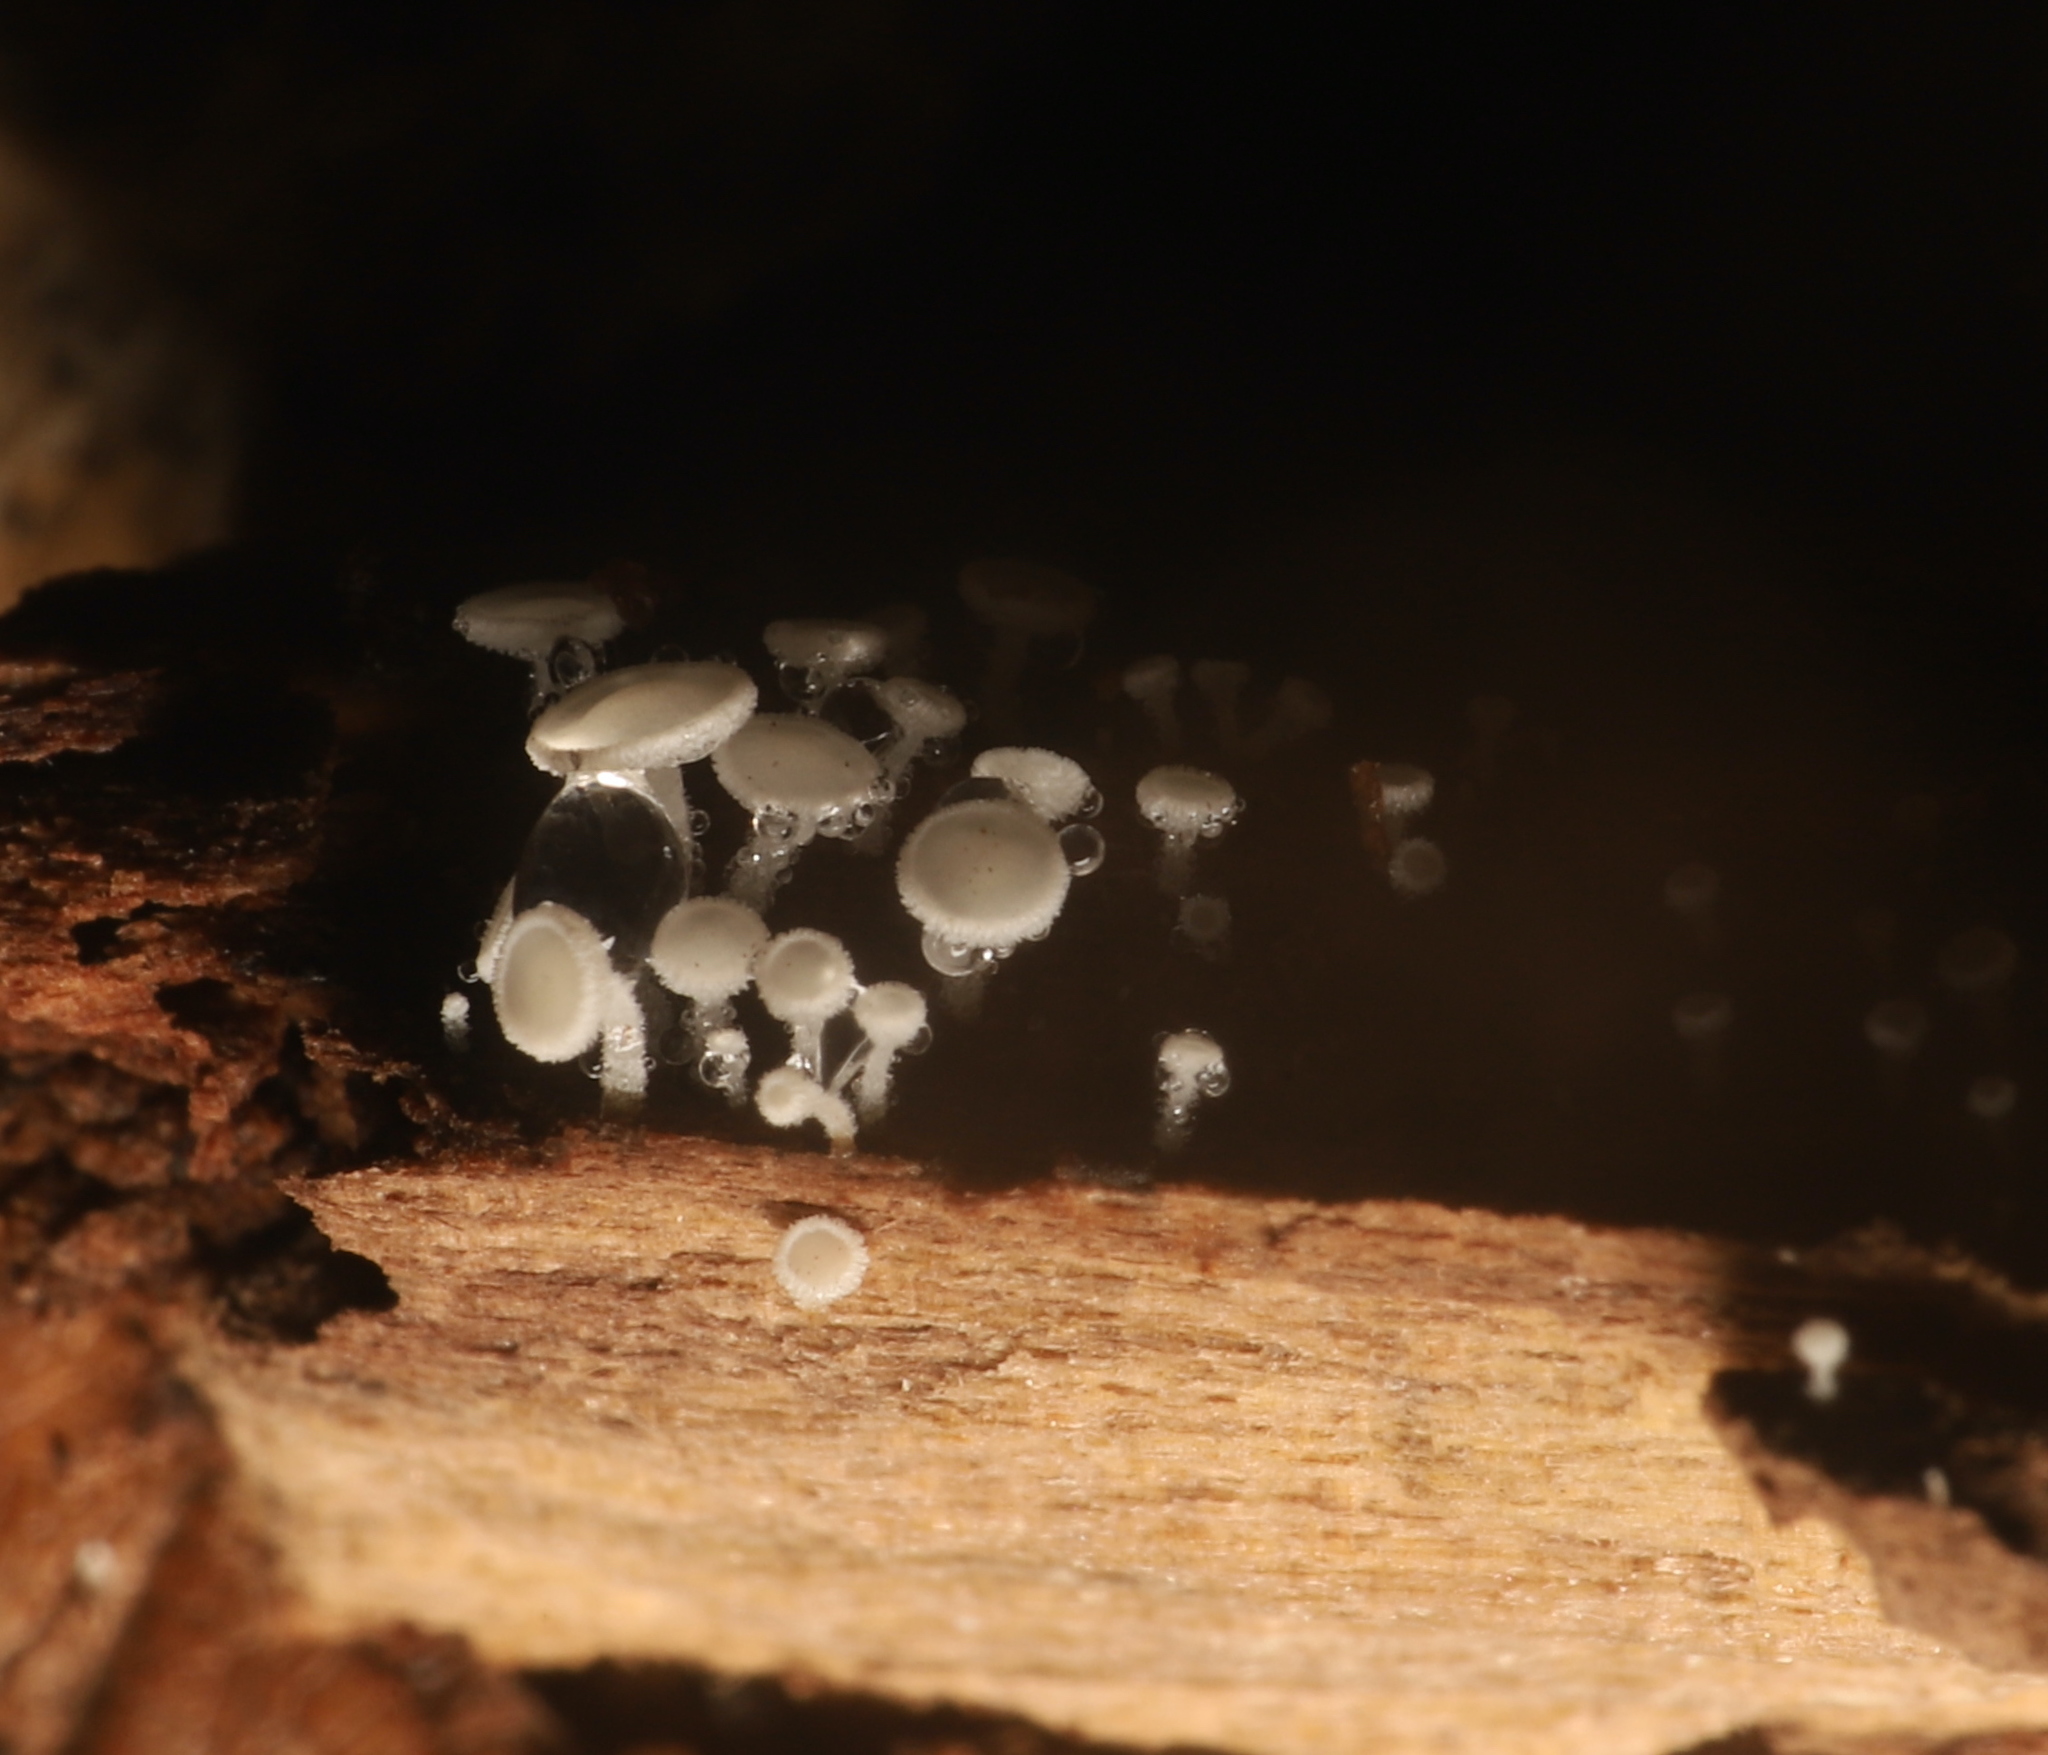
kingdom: Fungi
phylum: Ascomycota
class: Leotiomycetes
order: Helotiales
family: Lachnaceae
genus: Lachnum
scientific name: Lachnum virgineum
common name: Snowy disco
